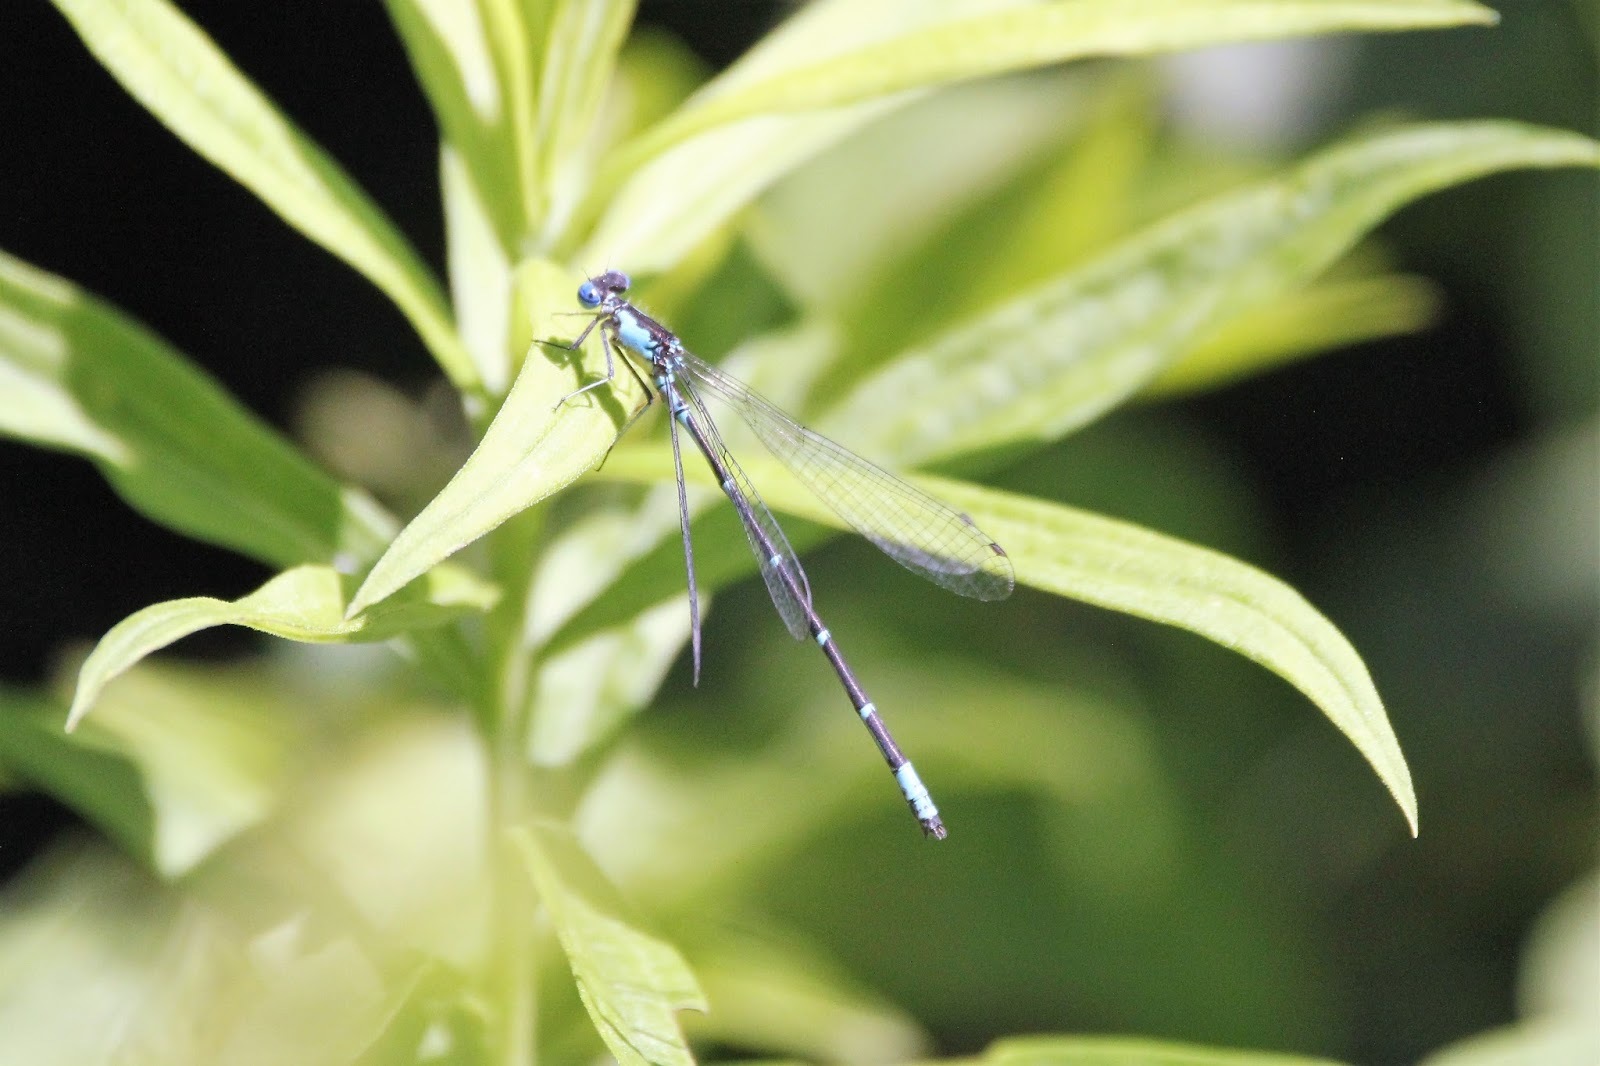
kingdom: Animalia
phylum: Arthropoda
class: Insecta
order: Odonata
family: Coenagrionidae
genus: Chromagrion
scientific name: Chromagrion conditum
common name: Aurora damsel
